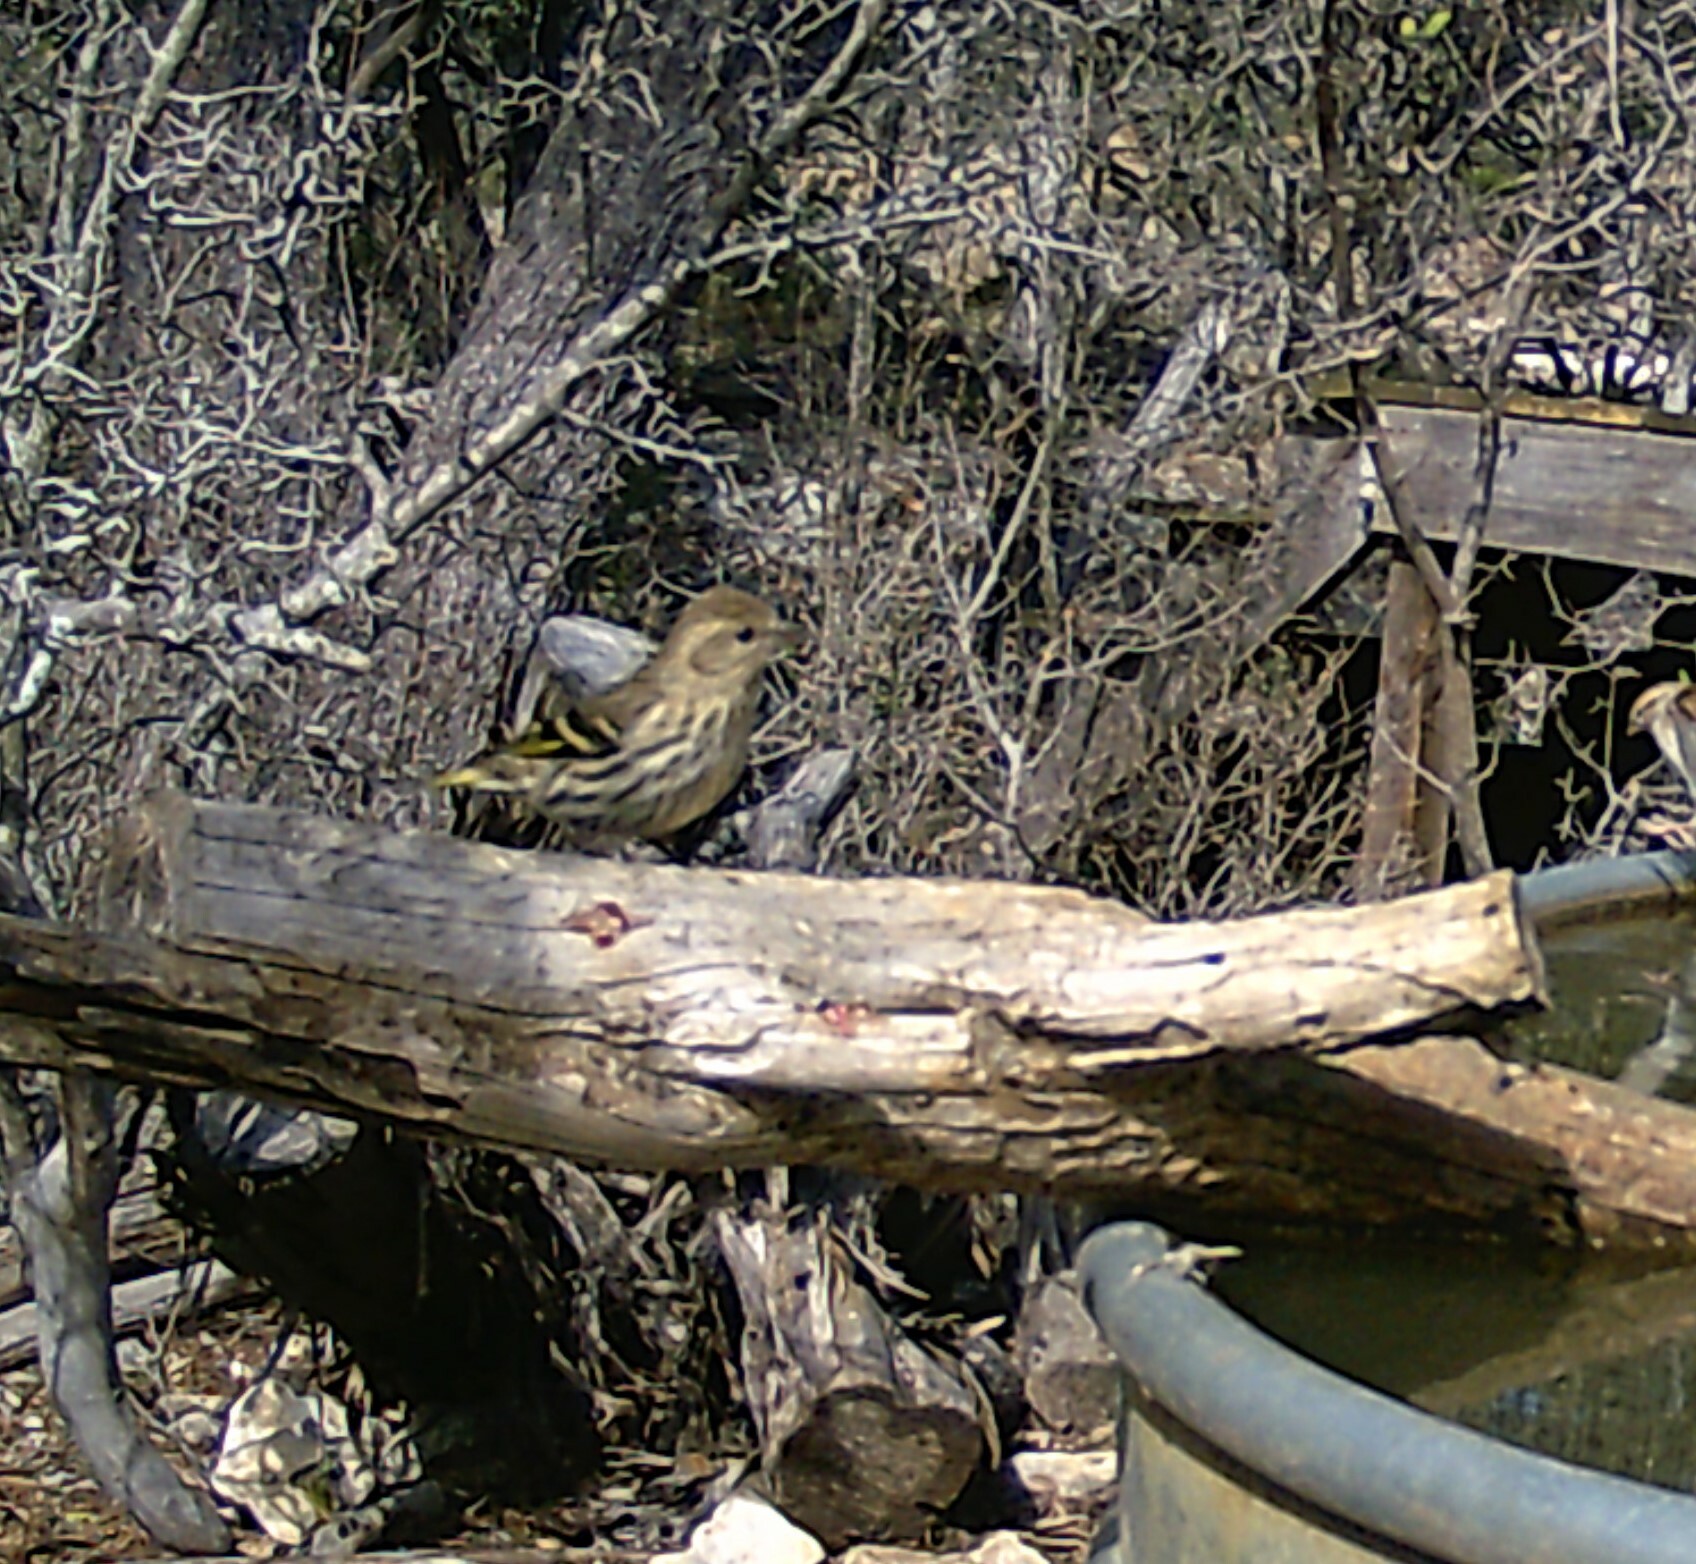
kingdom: Animalia
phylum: Chordata
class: Aves
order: Passeriformes
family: Fringillidae
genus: Spinus
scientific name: Spinus pinus
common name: Pine siskin
